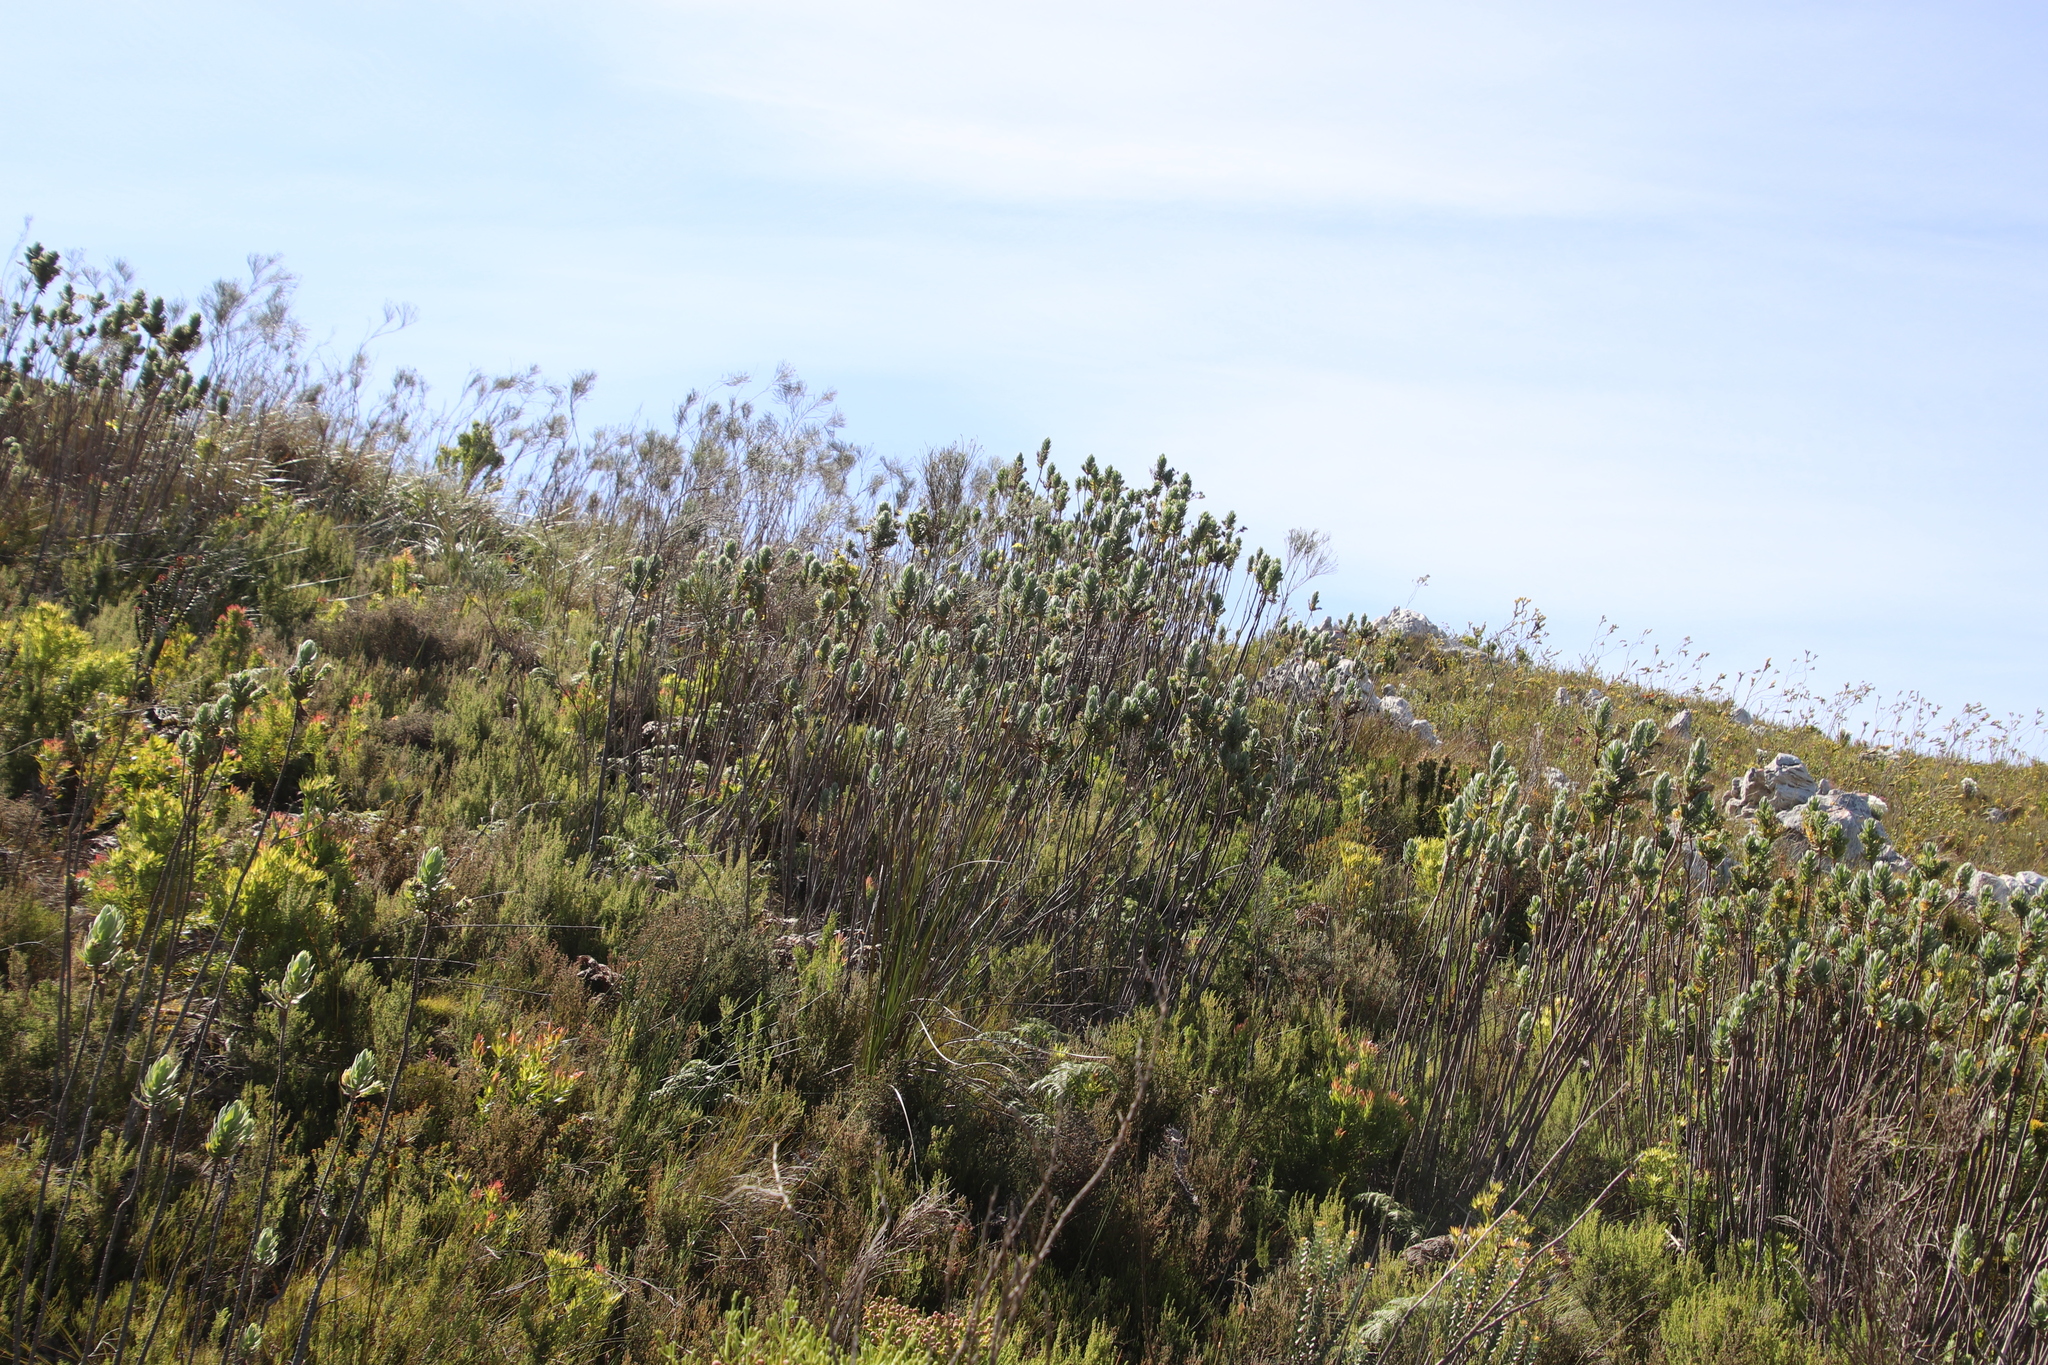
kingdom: Plantae
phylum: Tracheophyta
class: Magnoliopsida
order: Asterales
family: Asteraceae
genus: Osmitopsis
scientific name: Osmitopsis asteriscoides
